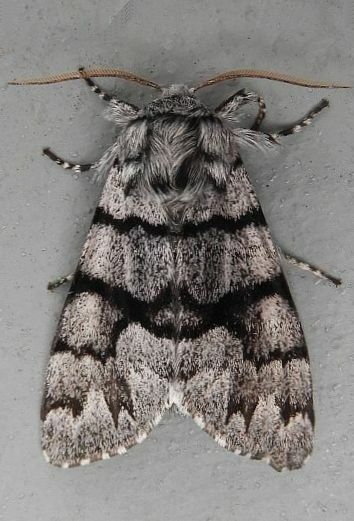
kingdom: Animalia
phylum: Arthropoda
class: Insecta
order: Lepidoptera
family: Noctuidae
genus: Panthea
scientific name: Panthea furcilla
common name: Eastern panthea moth
